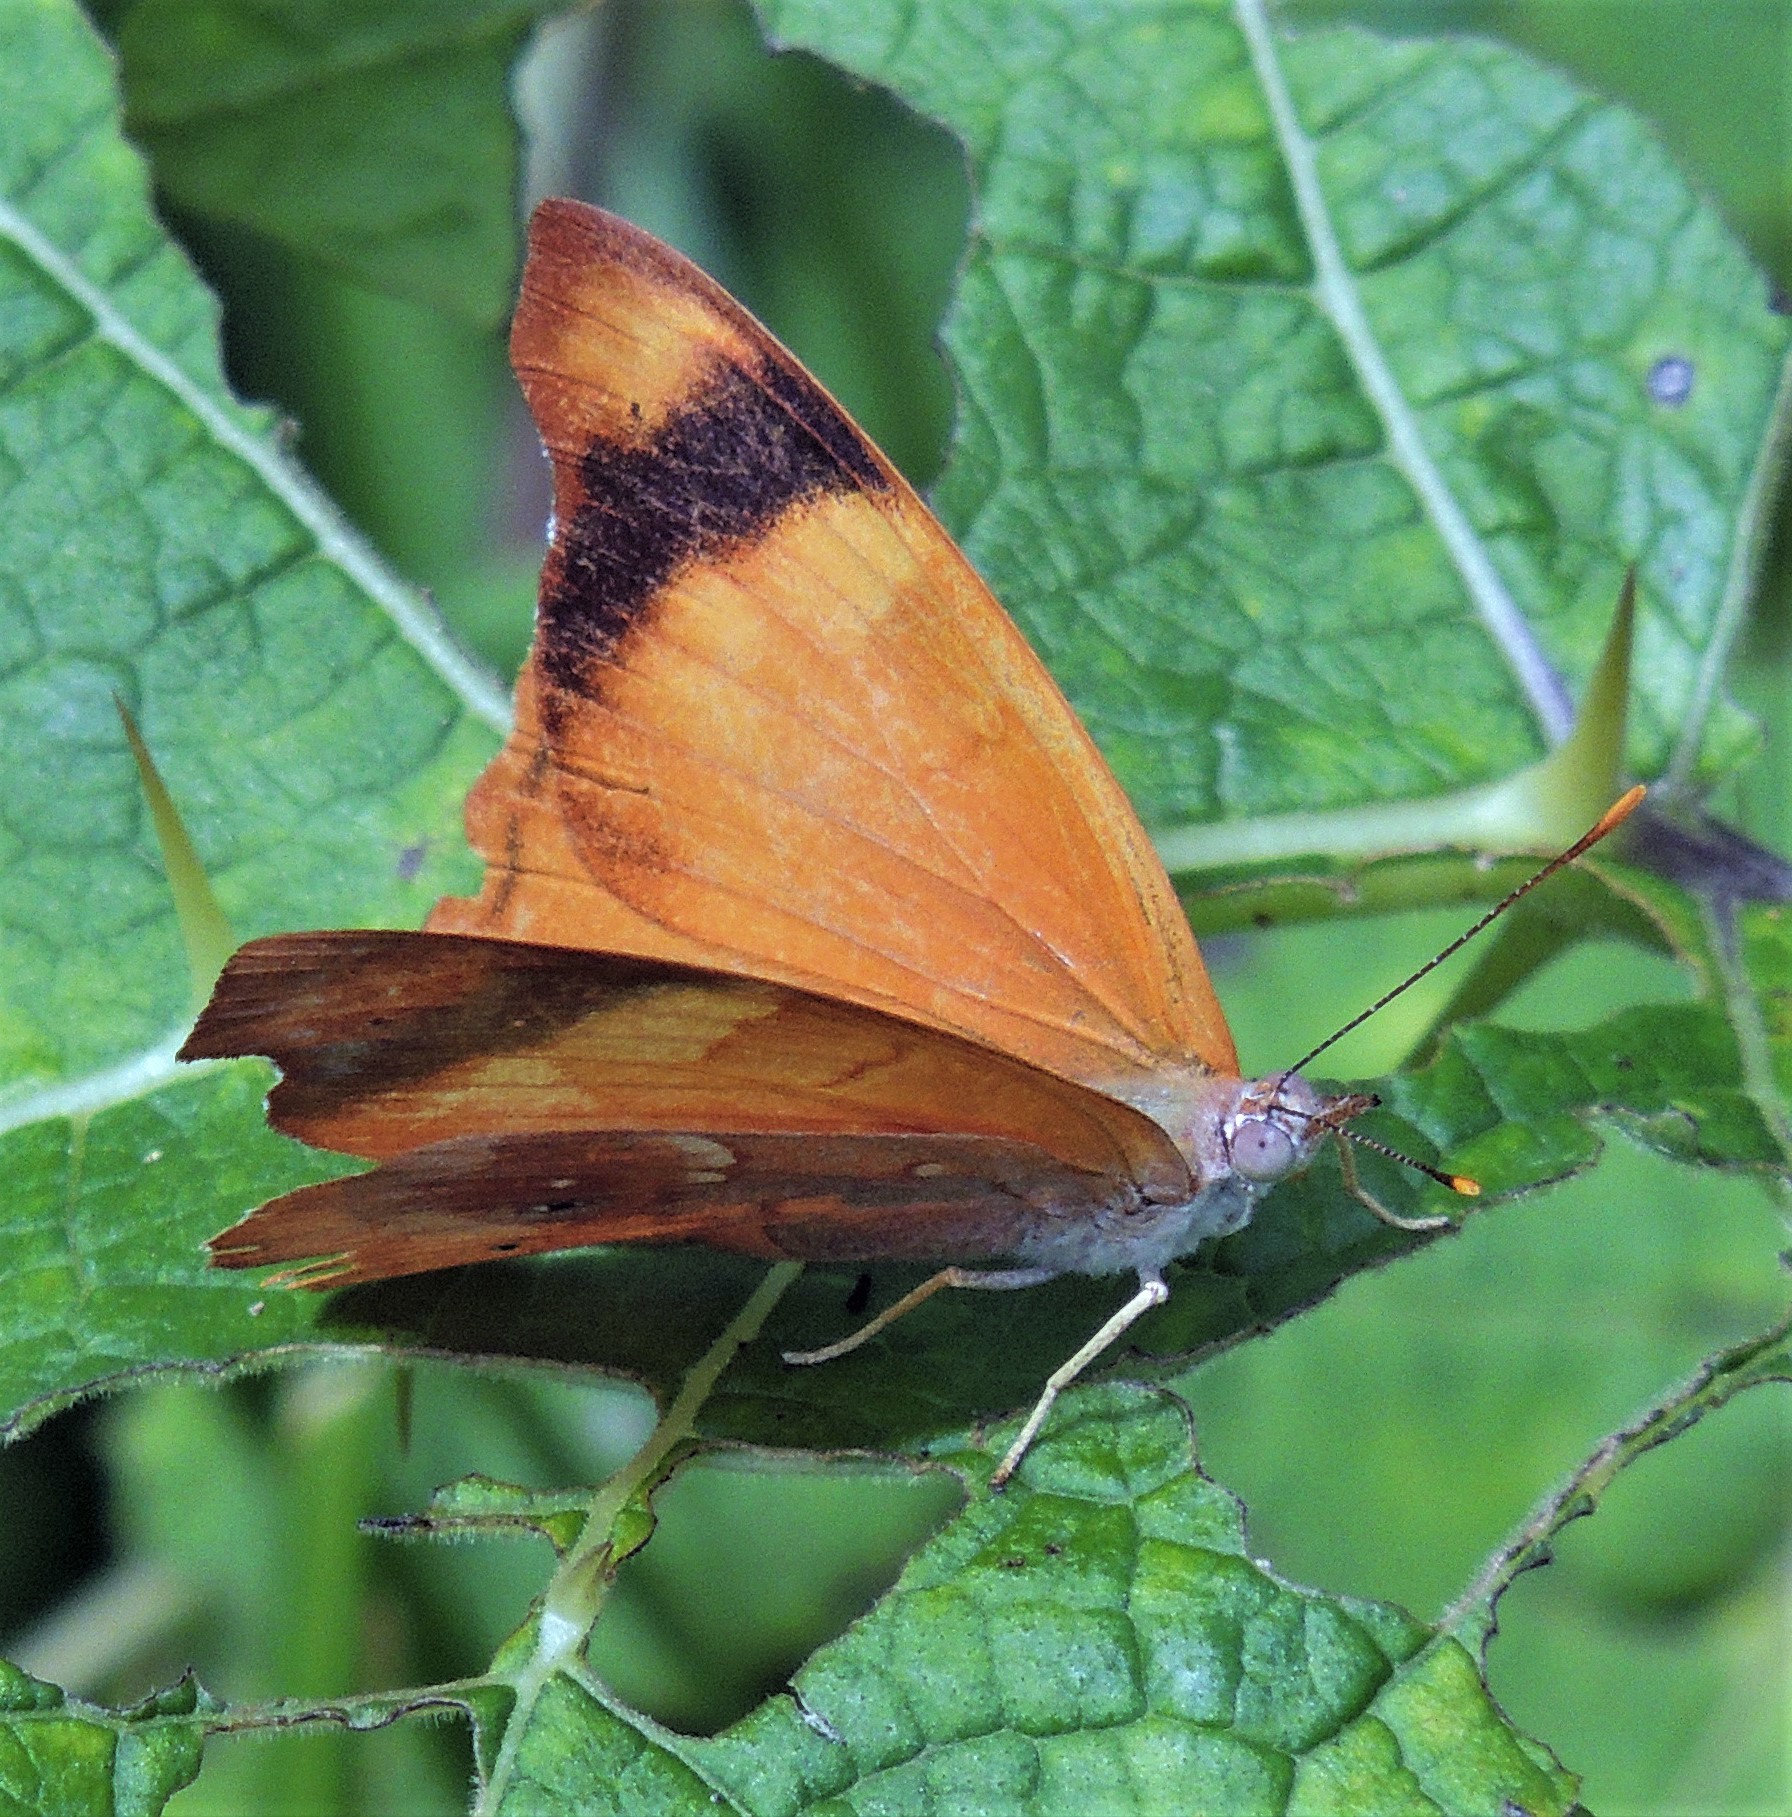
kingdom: Animalia
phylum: Arthropoda
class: Insecta
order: Lepidoptera
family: Nymphalidae
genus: Temenis
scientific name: Temenis laothoe
